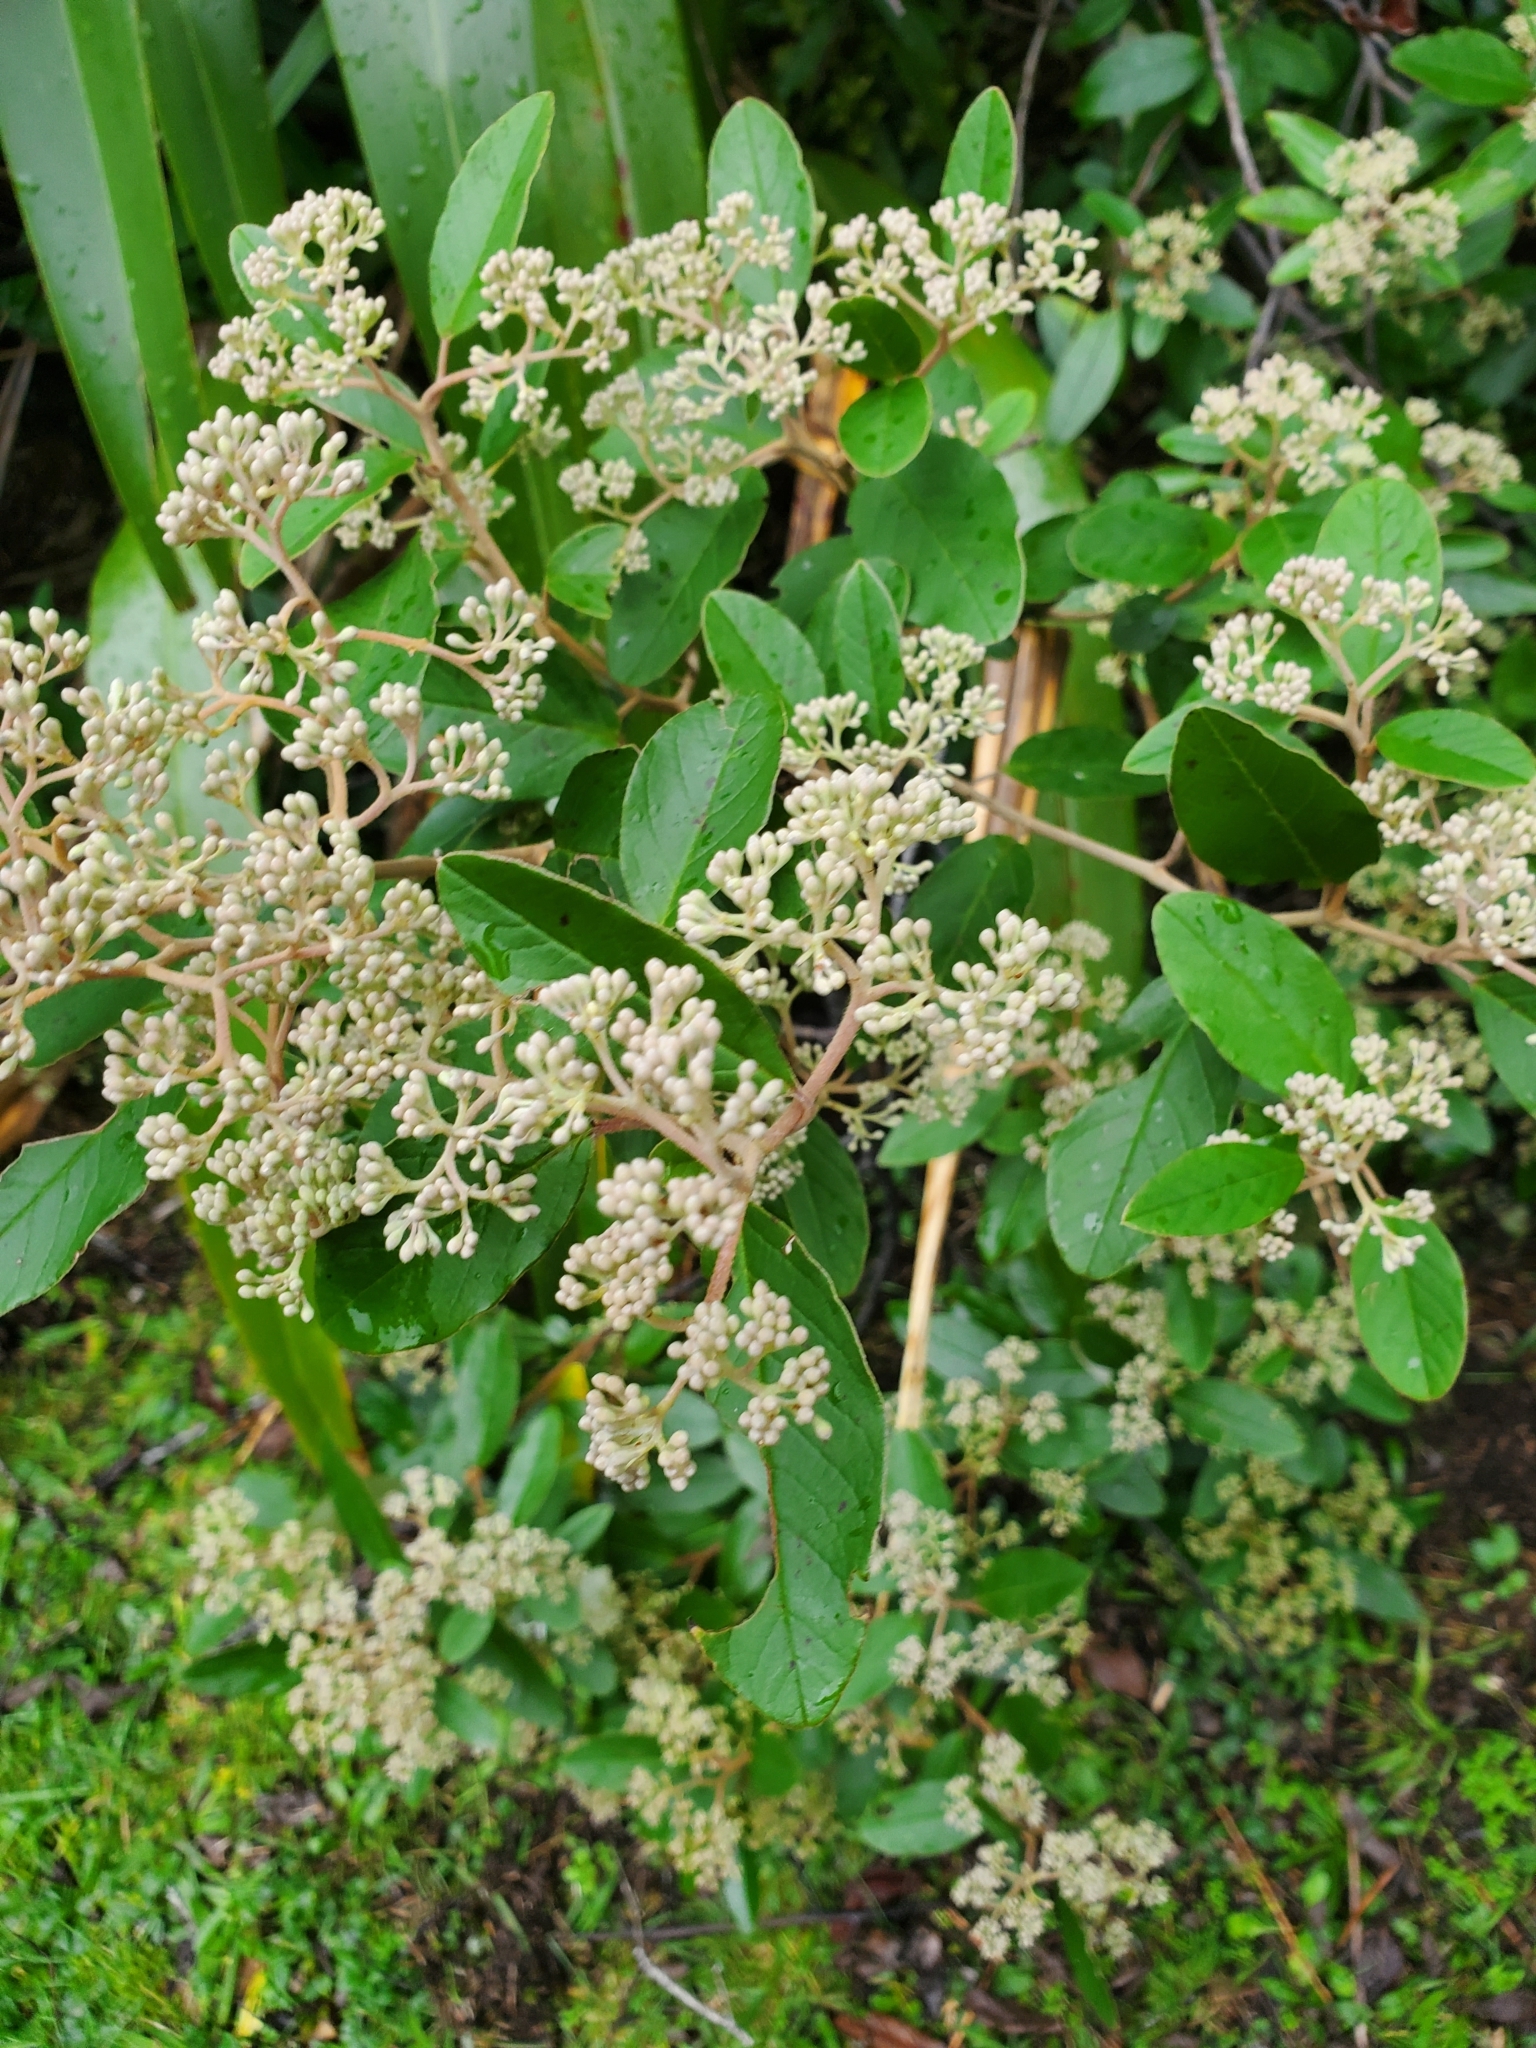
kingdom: Plantae
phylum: Tracheophyta
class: Magnoliopsida
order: Rosales
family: Rhamnaceae
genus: Pomaderris
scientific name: Pomaderris kumeraho
